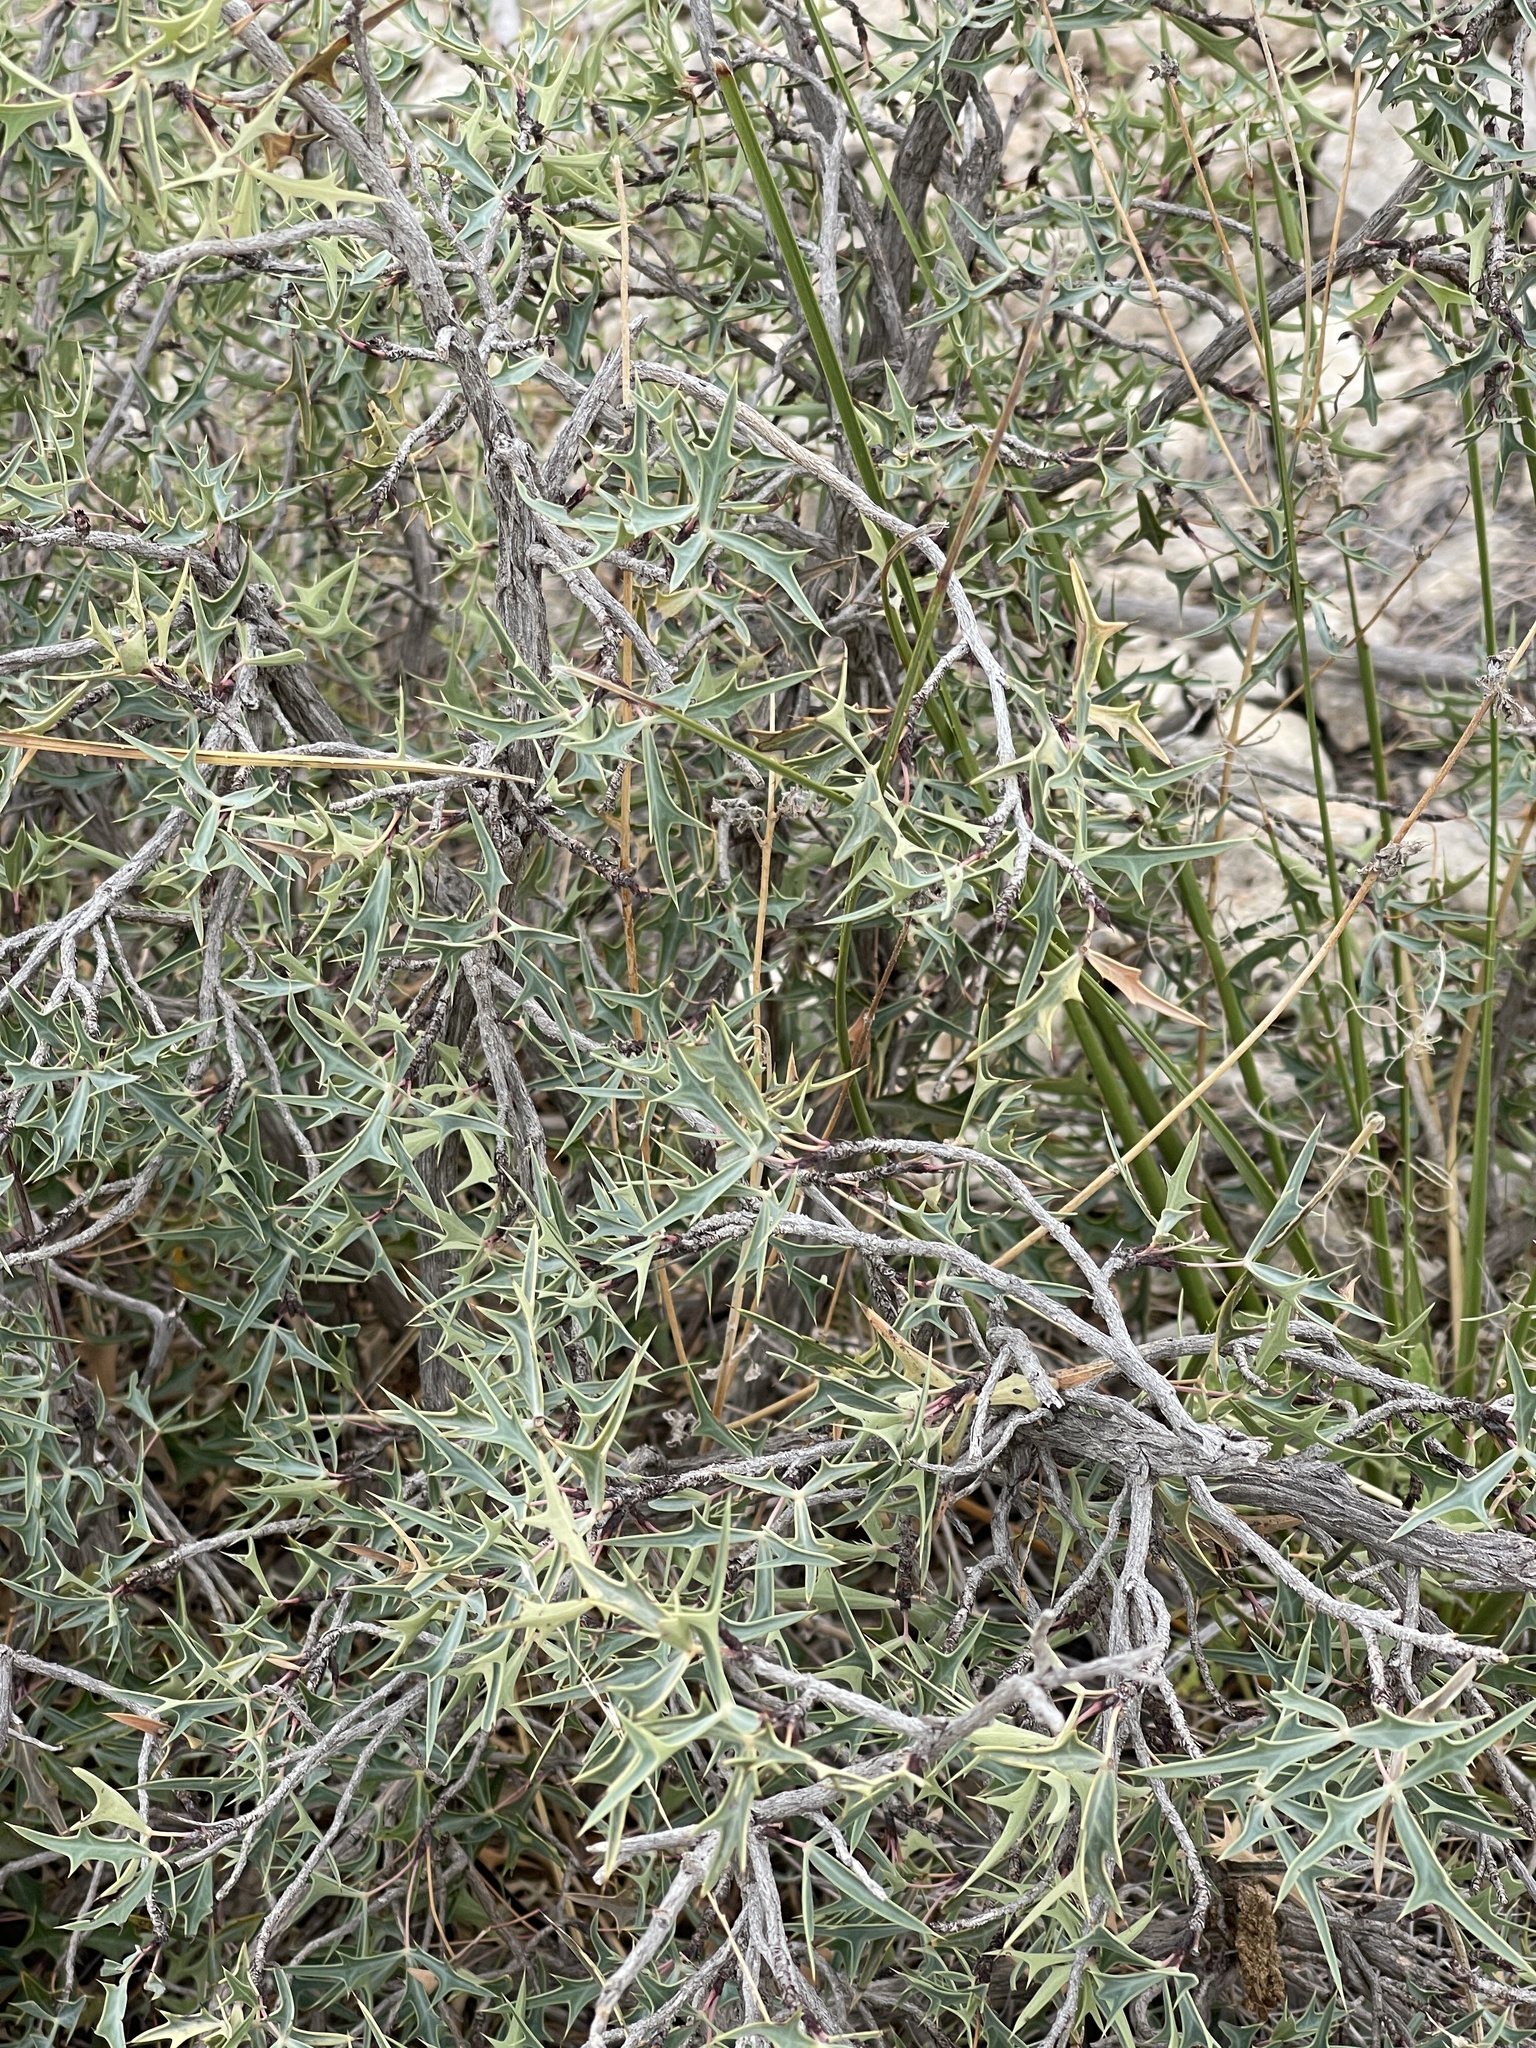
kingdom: Plantae
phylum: Tracheophyta
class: Magnoliopsida
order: Ranunculales
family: Berberidaceae
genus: Alloberberis
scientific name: Alloberberis trifoliolata
